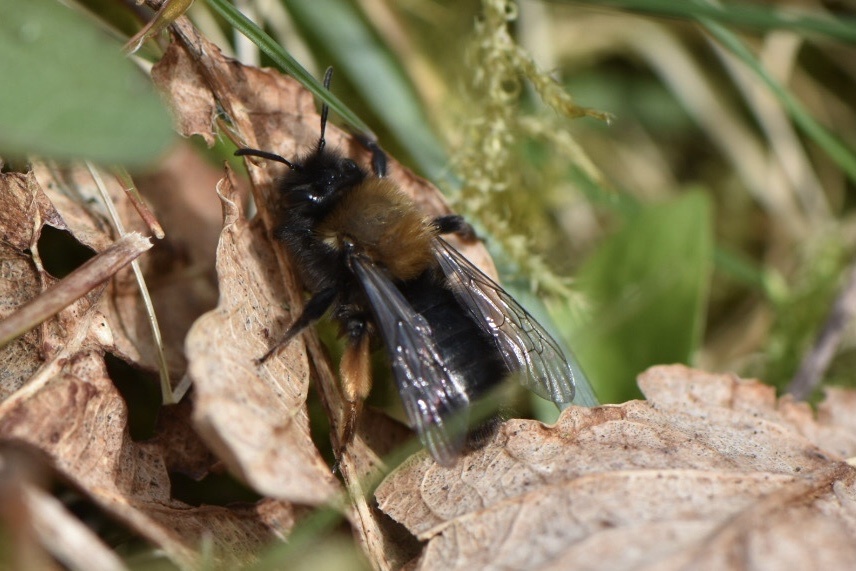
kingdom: Animalia
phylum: Arthropoda
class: Insecta
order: Hymenoptera
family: Andrenidae
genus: Andrena
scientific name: Andrena clarkella
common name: Clarke's mining bee
